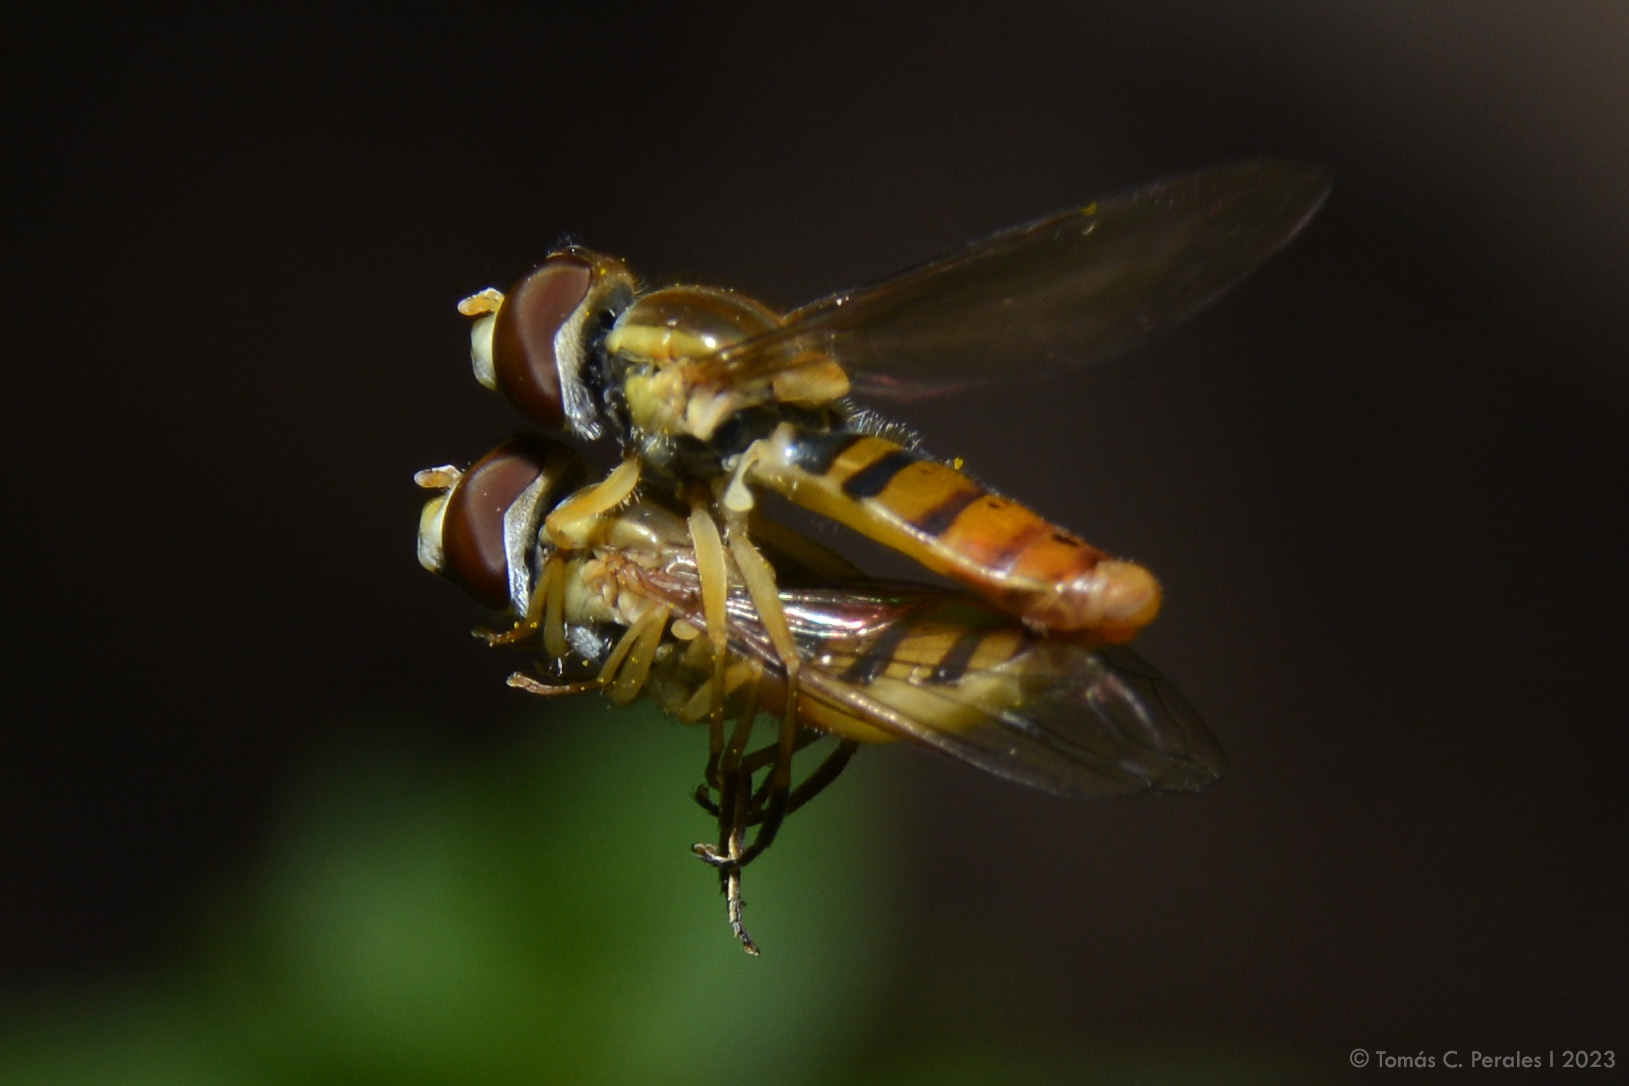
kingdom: Animalia
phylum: Arthropoda
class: Insecta
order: Diptera
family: Syrphidae
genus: Toxomerus
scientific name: Toxomerus
